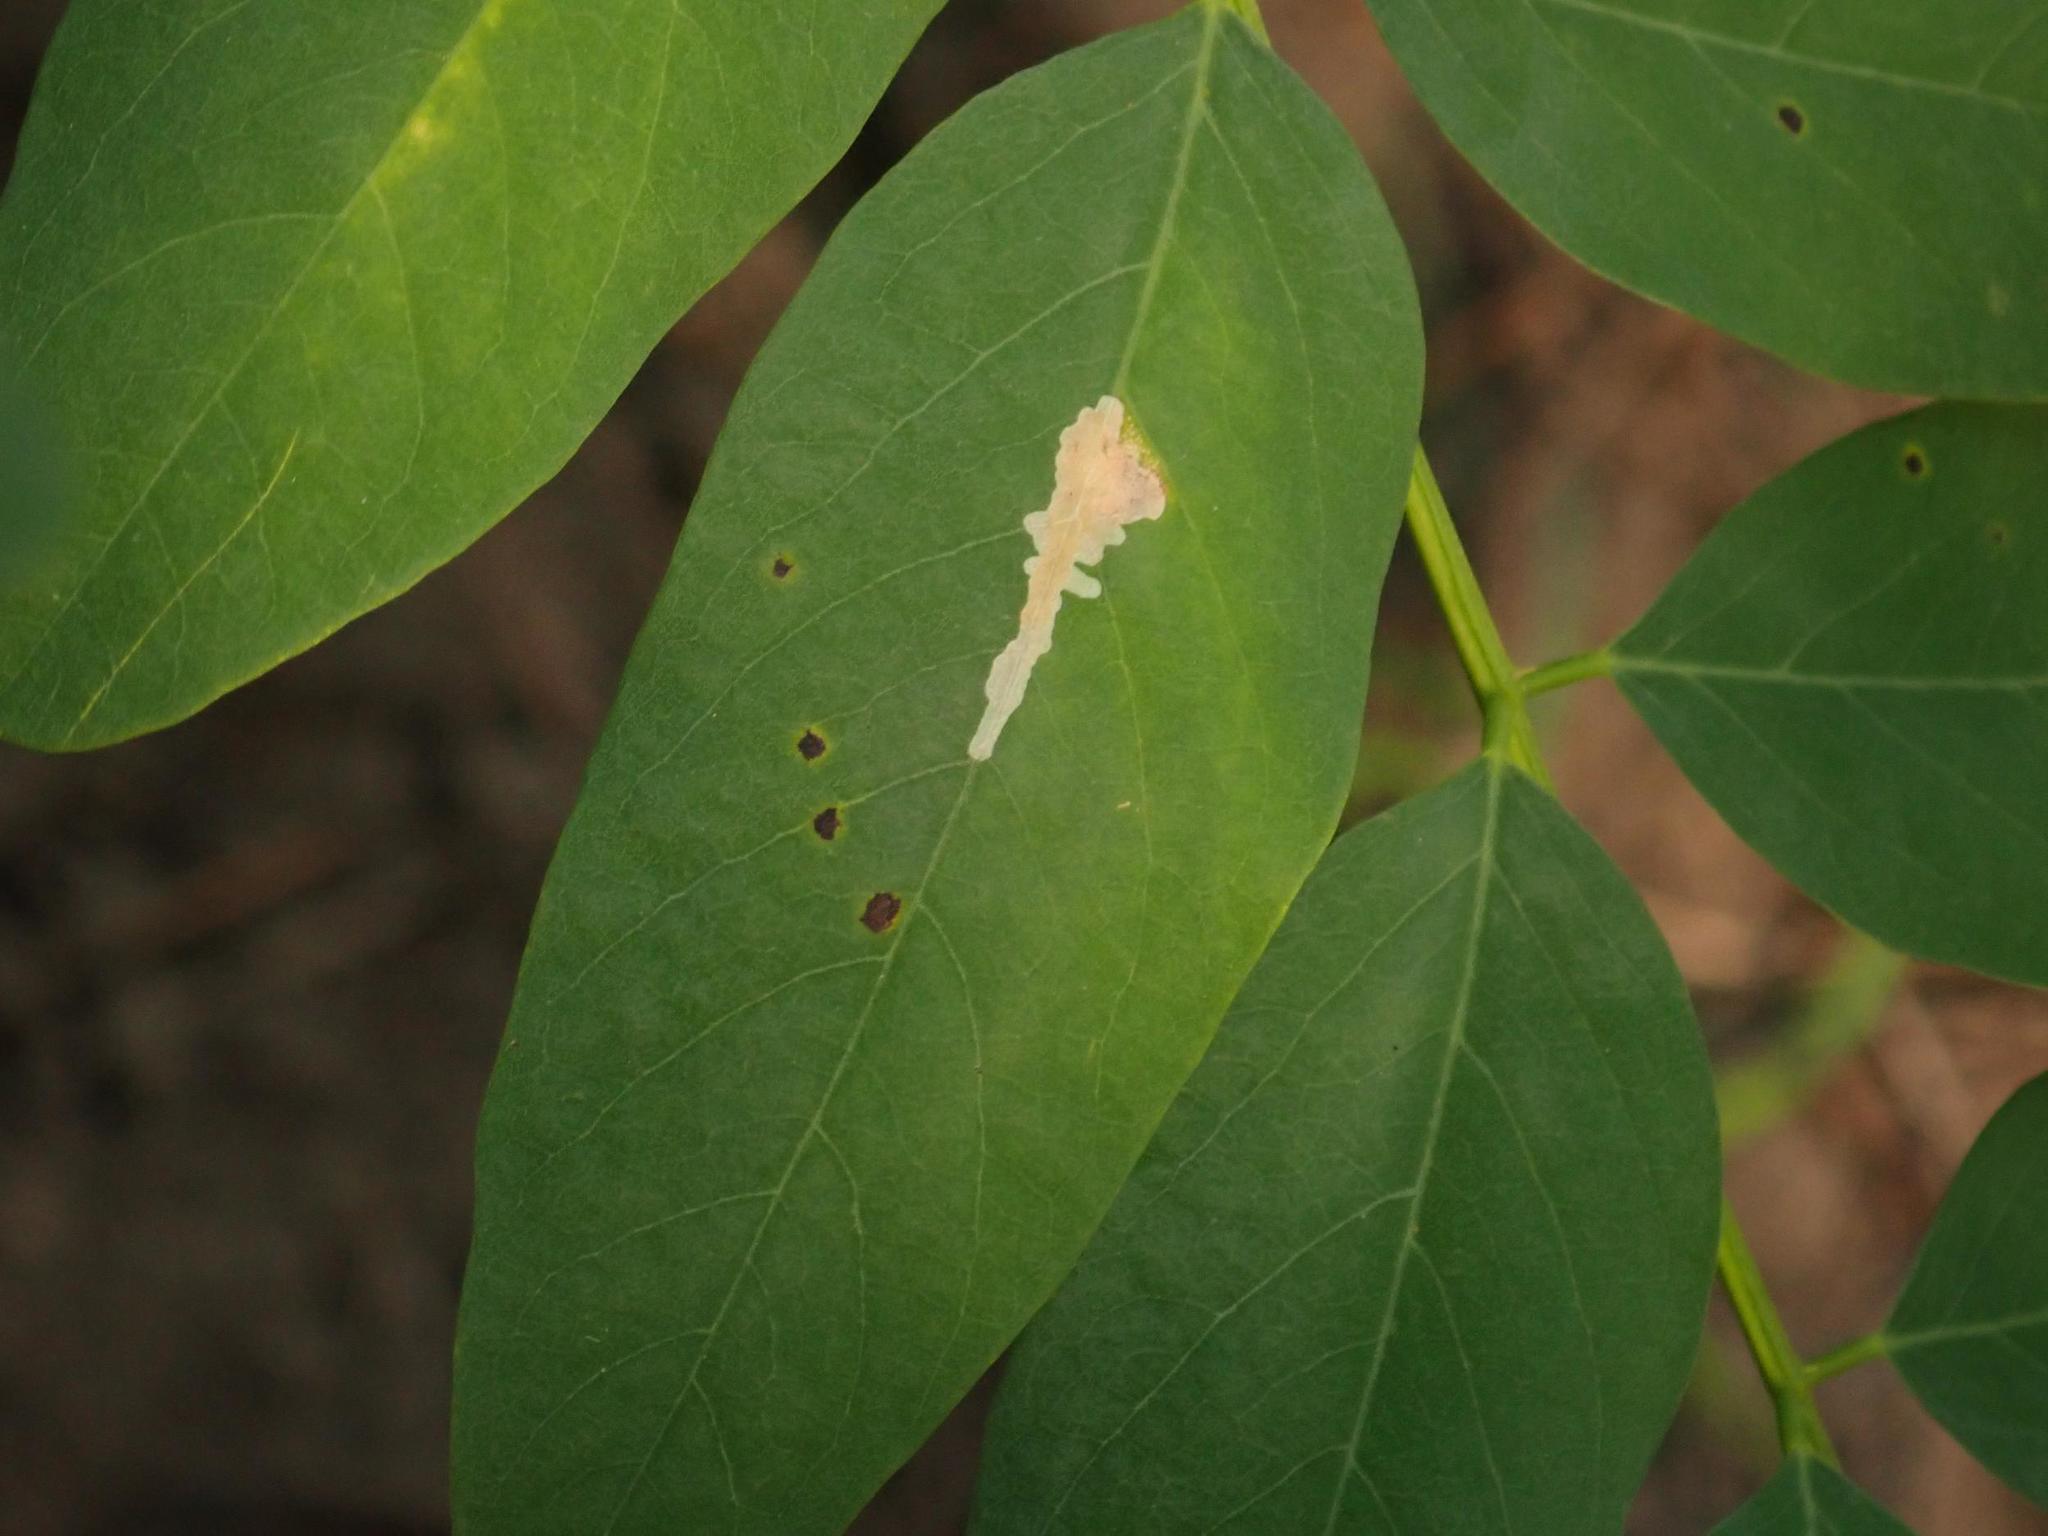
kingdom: Animalia
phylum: Arthropoda
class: Insecta
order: Lepidoptera
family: Gracillariidae
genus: Parectopa
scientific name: Parectopa robiniella
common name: Locust digitate leafminer
